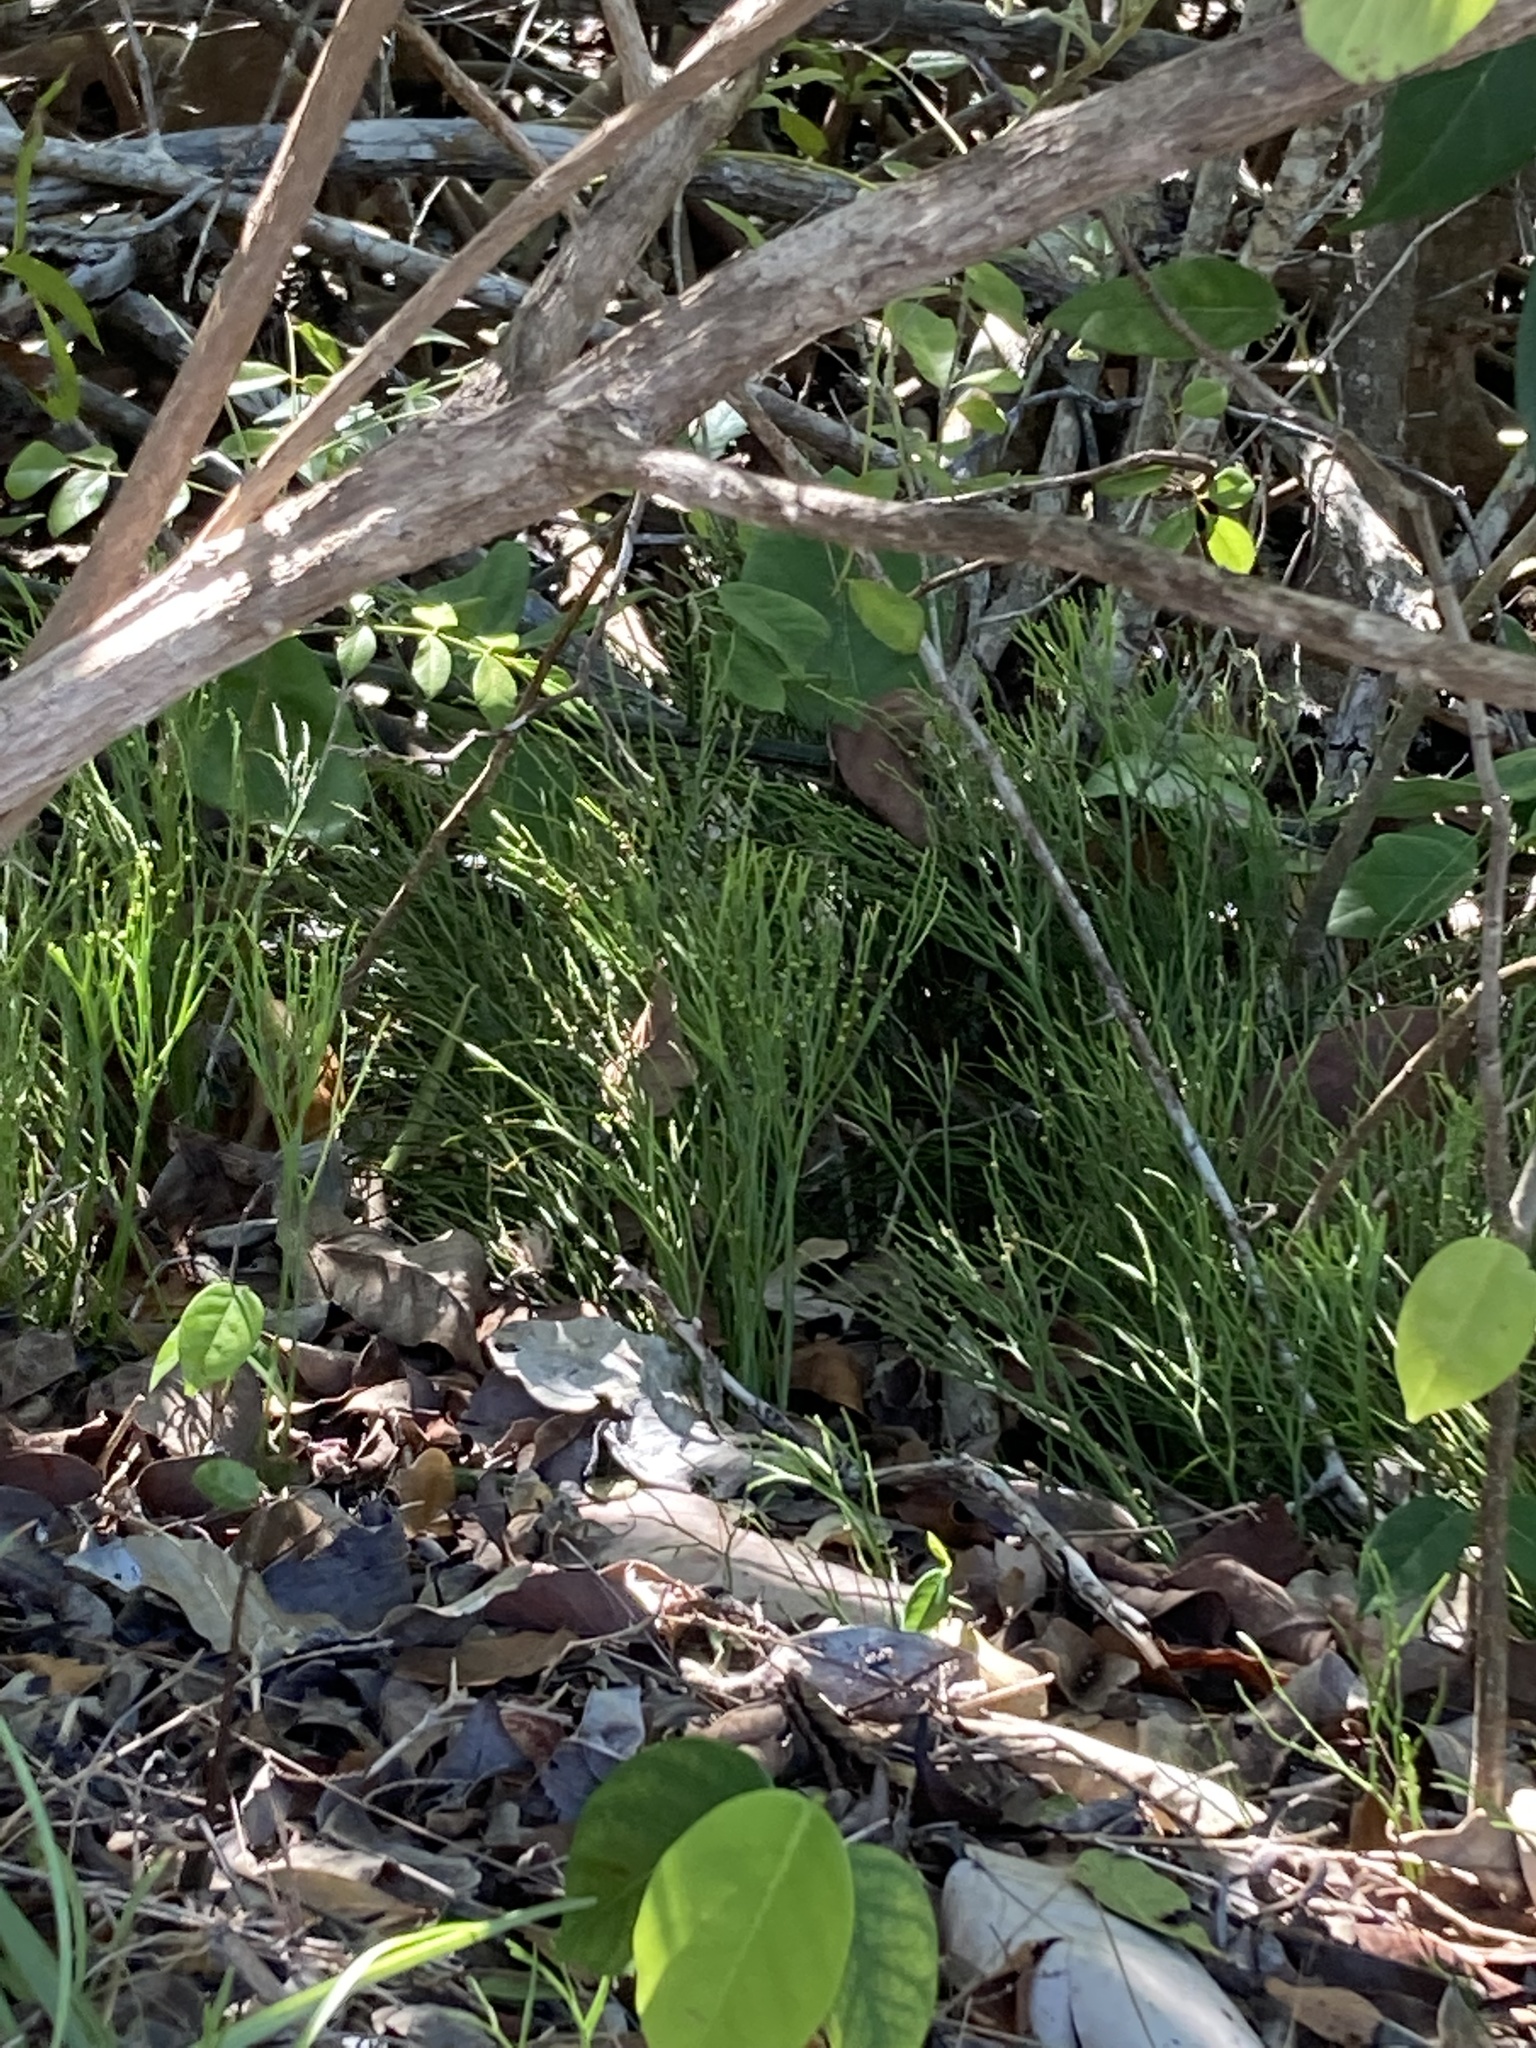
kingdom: Plantae
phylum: Tracheophyta
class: Polypodiopsida
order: Psilotales
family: Psilotaceae
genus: Psilotum
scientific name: Psilotum nudum
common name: Skeleton fork fern
